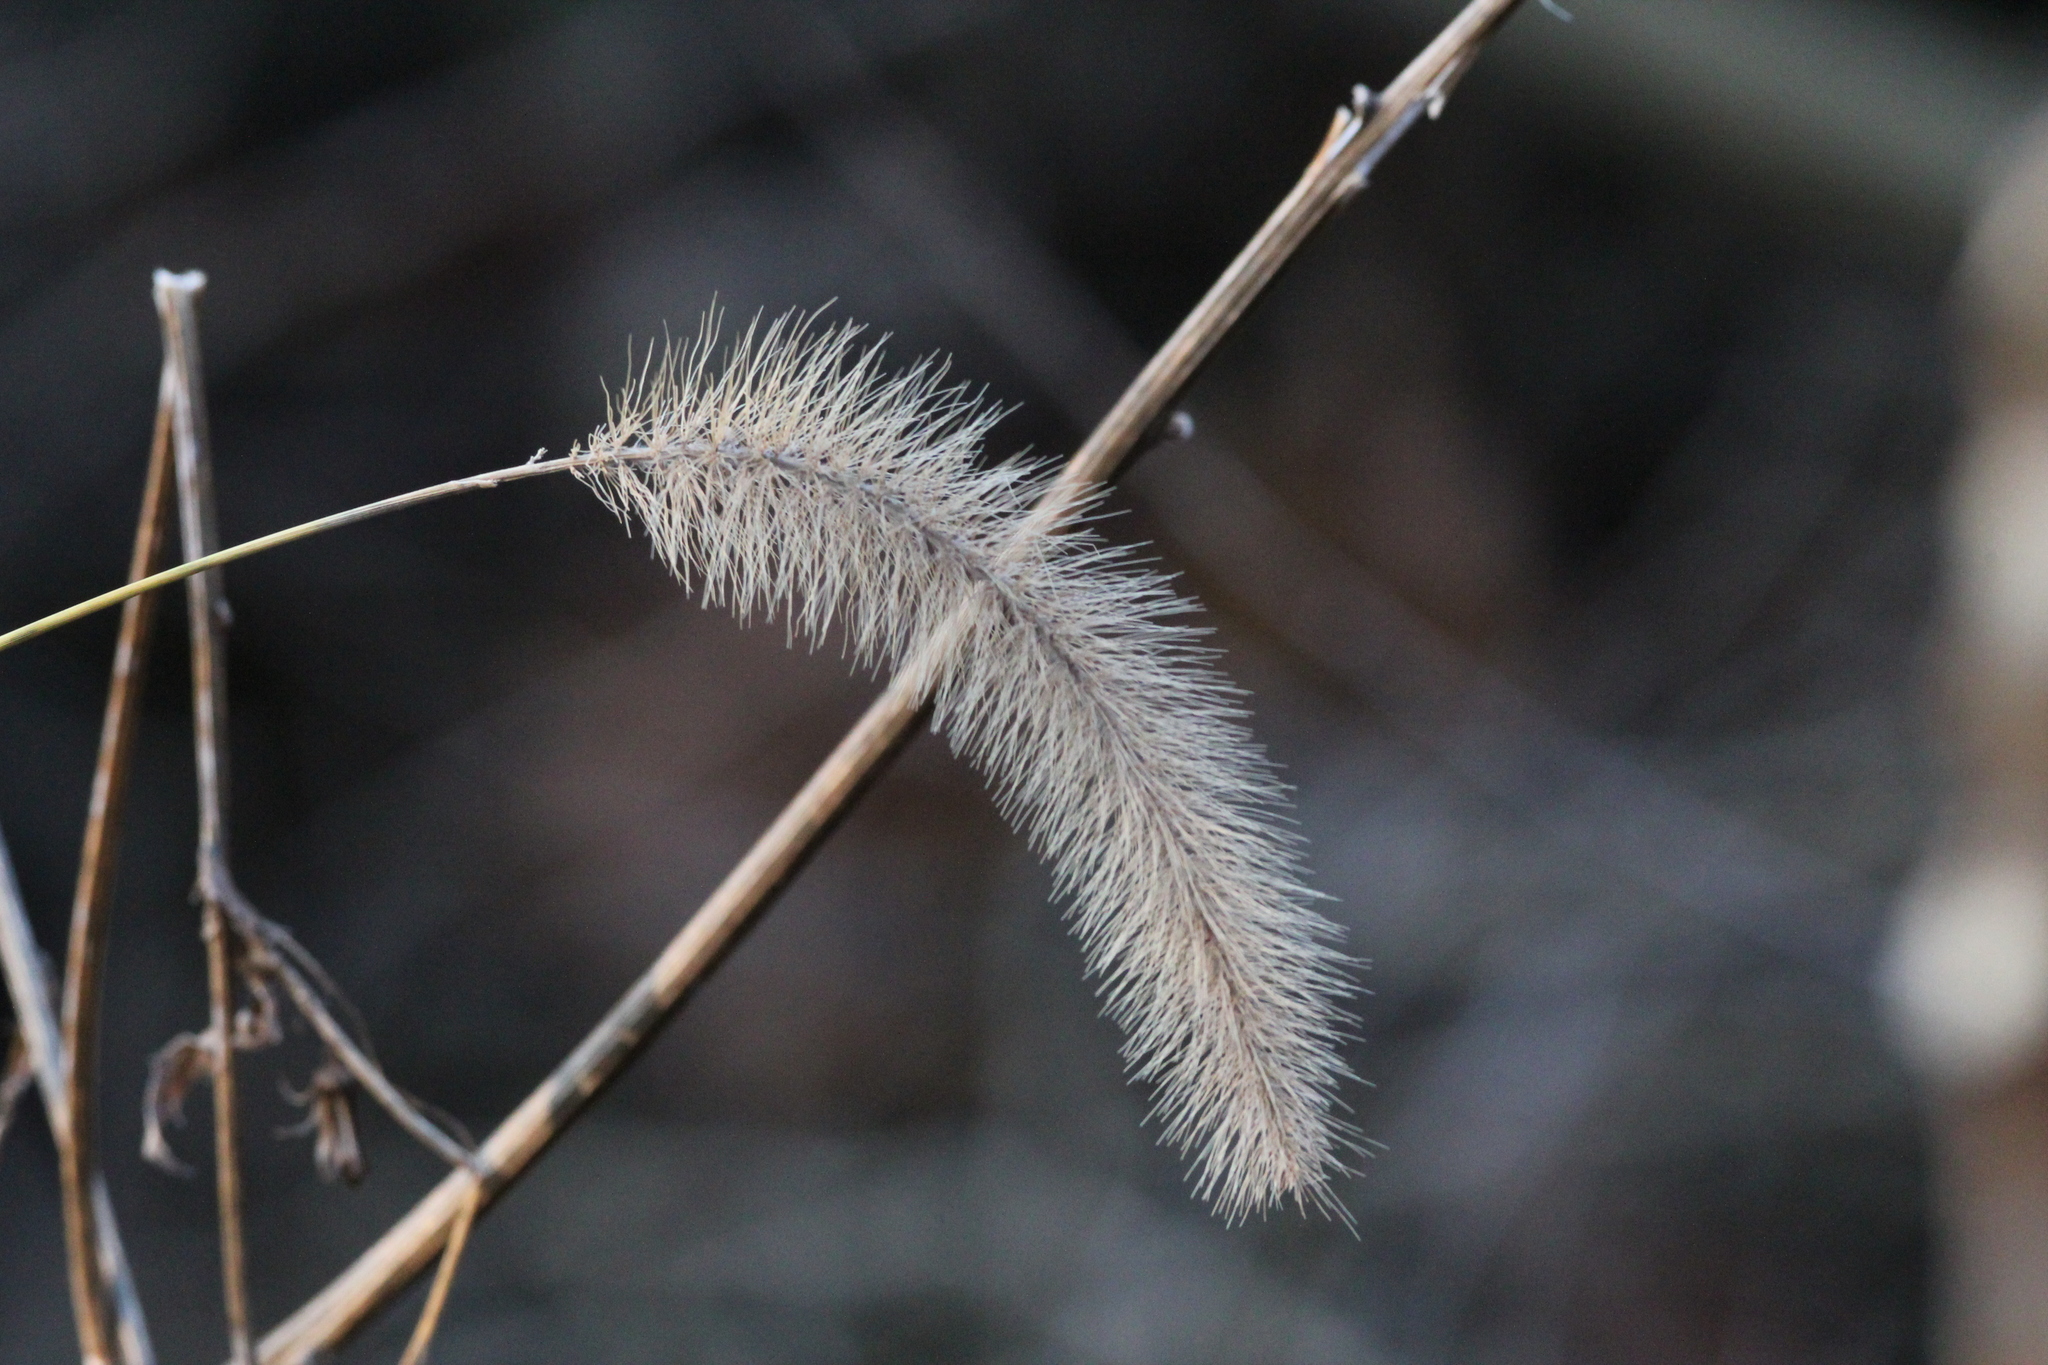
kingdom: Plantae
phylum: Tracheophyta
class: Liliopsida
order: Poales
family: Poaceae
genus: Setaria
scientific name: Setaria viridis
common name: Green bristlegrass
